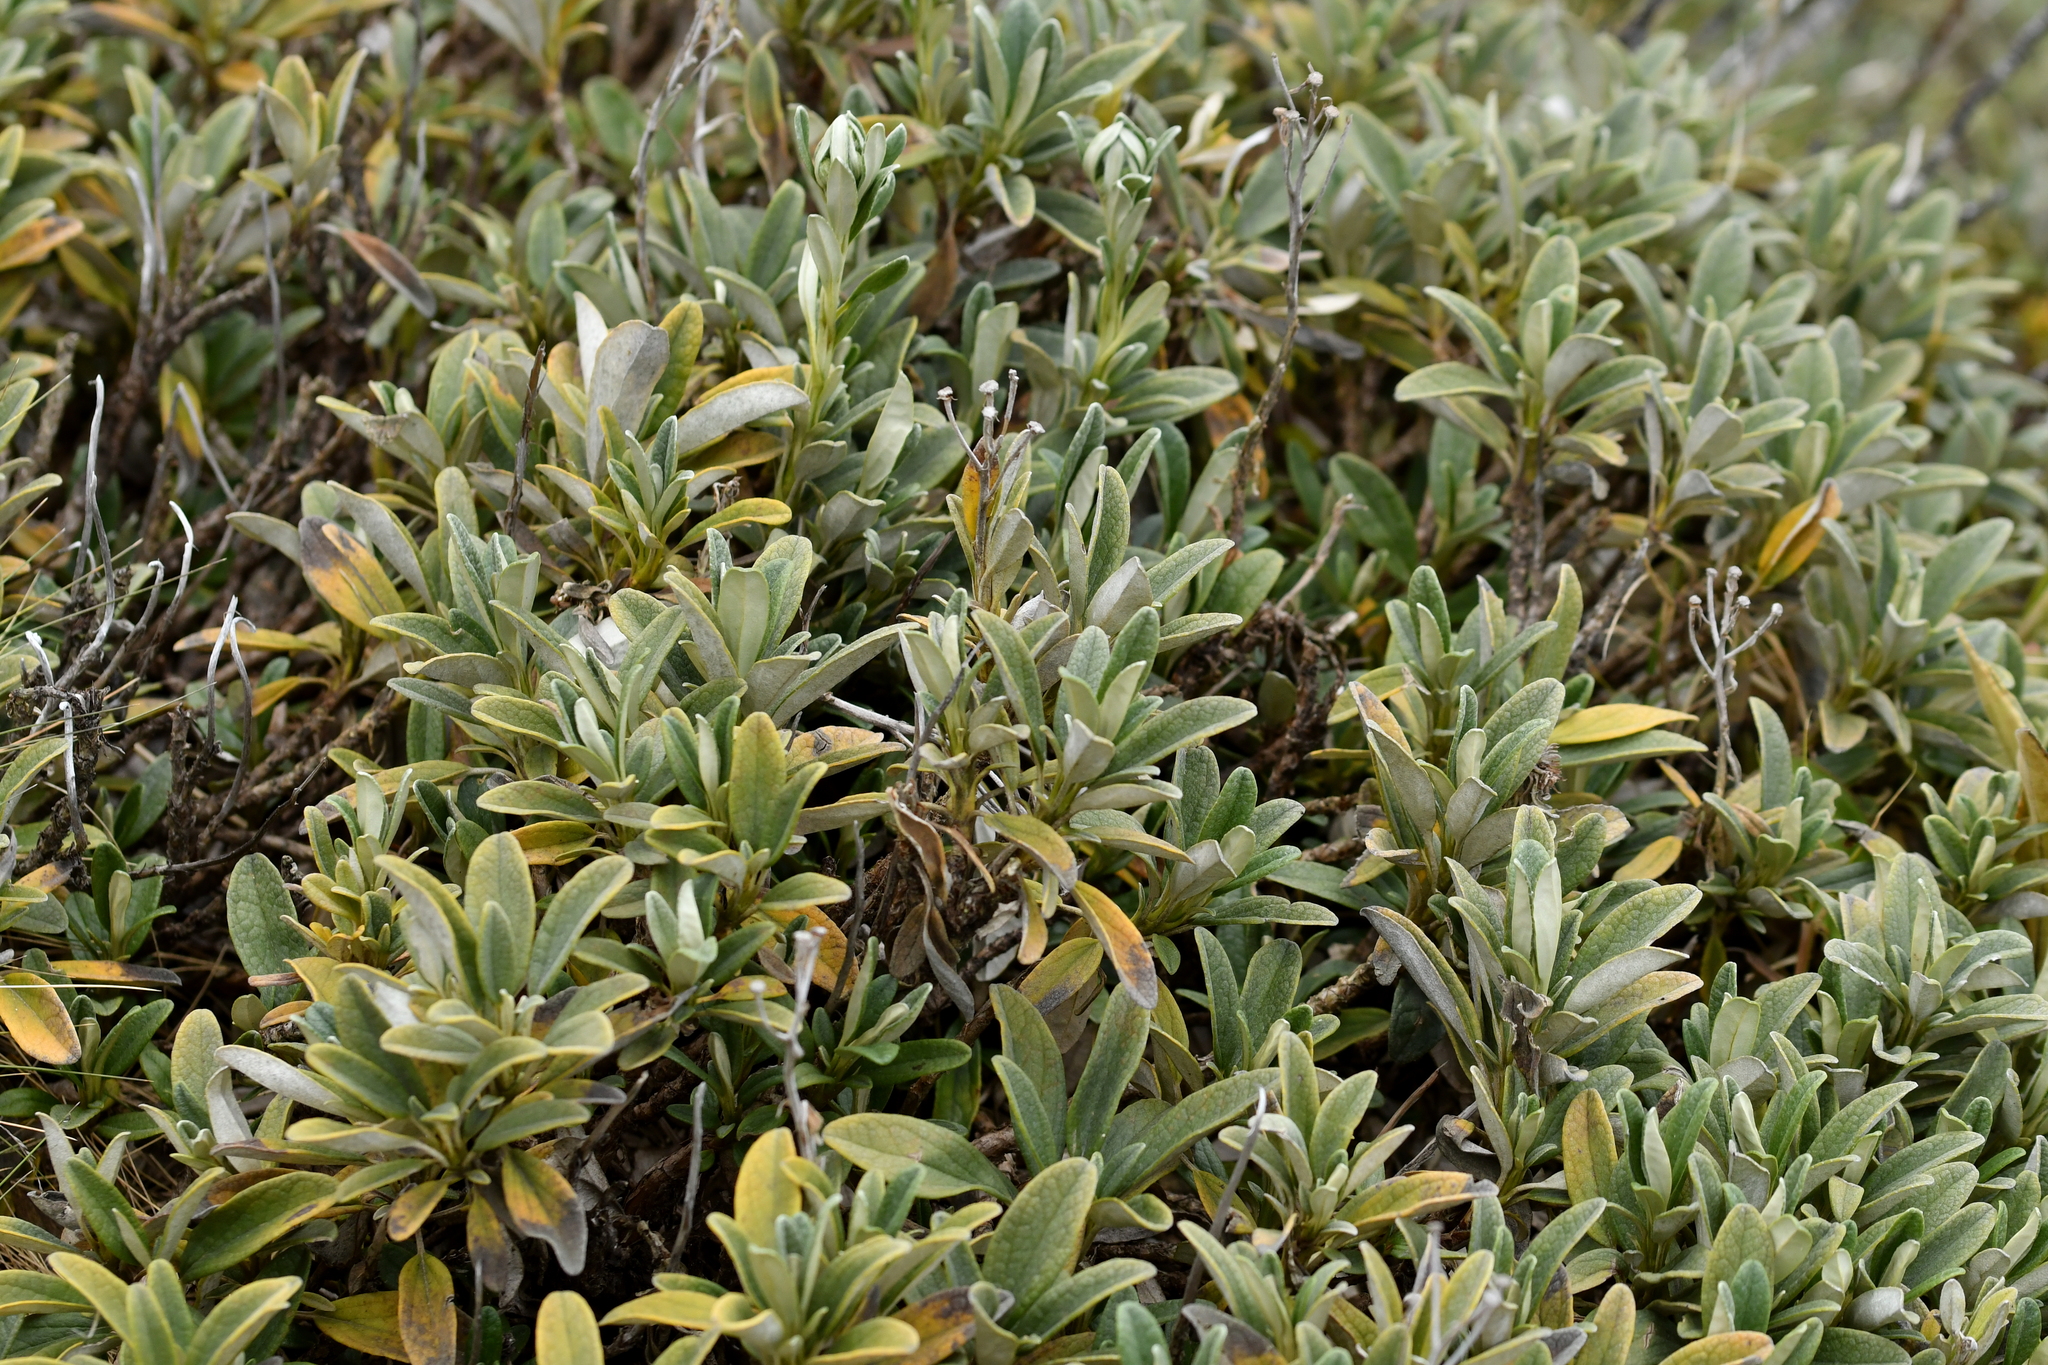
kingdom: Plantae
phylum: Tracheophyta
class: Magnoliopsida
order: Asterales
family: Asteraceae
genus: Brachyglottis
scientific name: Brachyglottis revoluta
